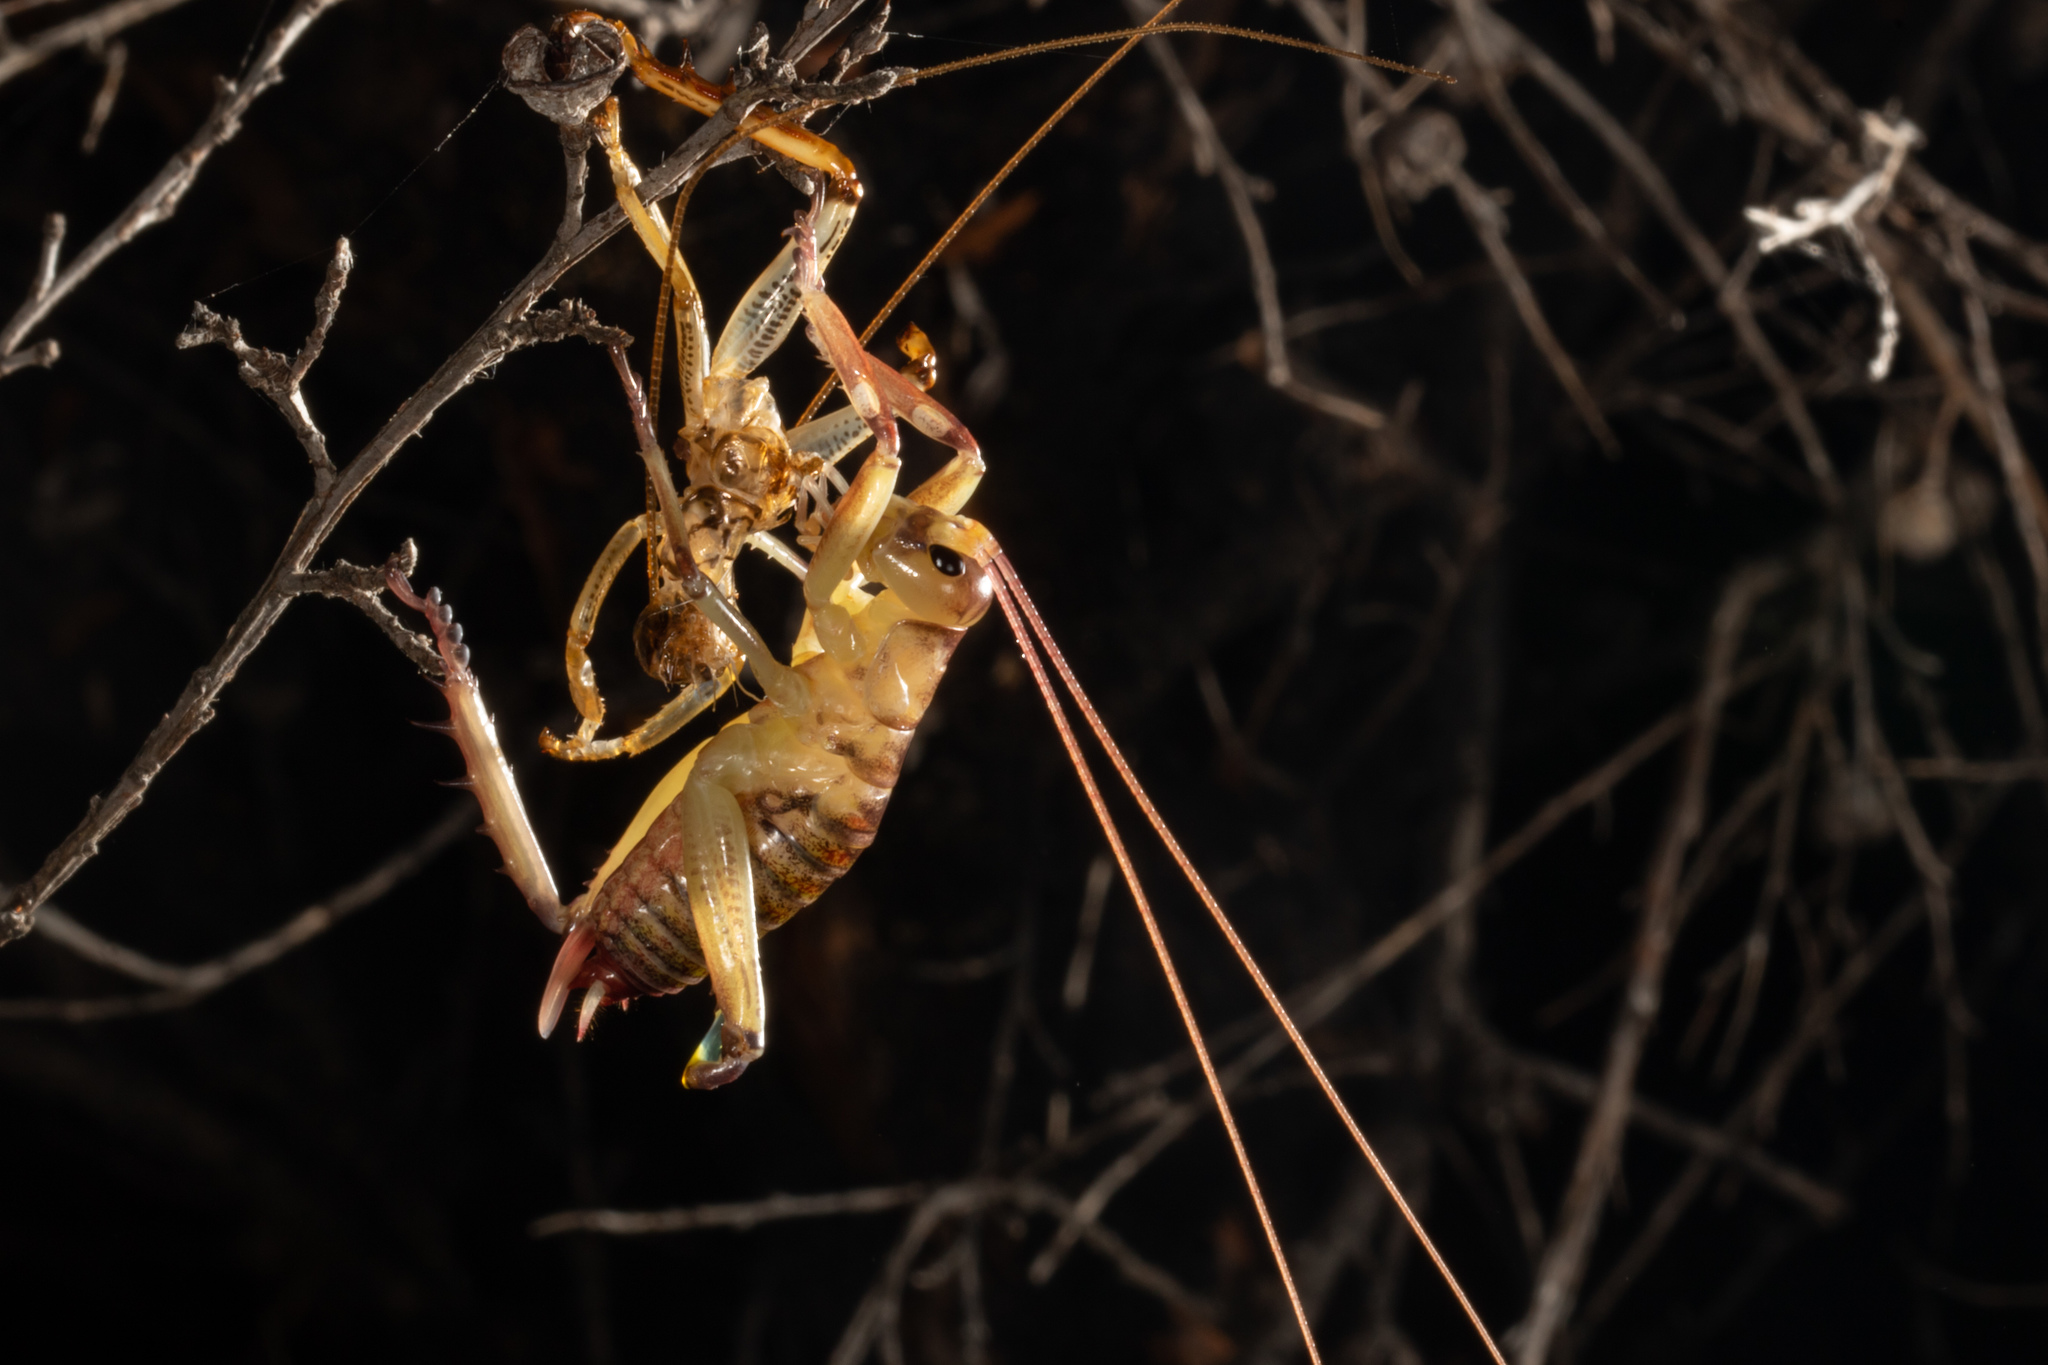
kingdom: Animalia
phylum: Arthropoda
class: Insecta
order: Orthoptera
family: Anostostomatidae
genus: Hemideina
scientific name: Hemideina thoracica
